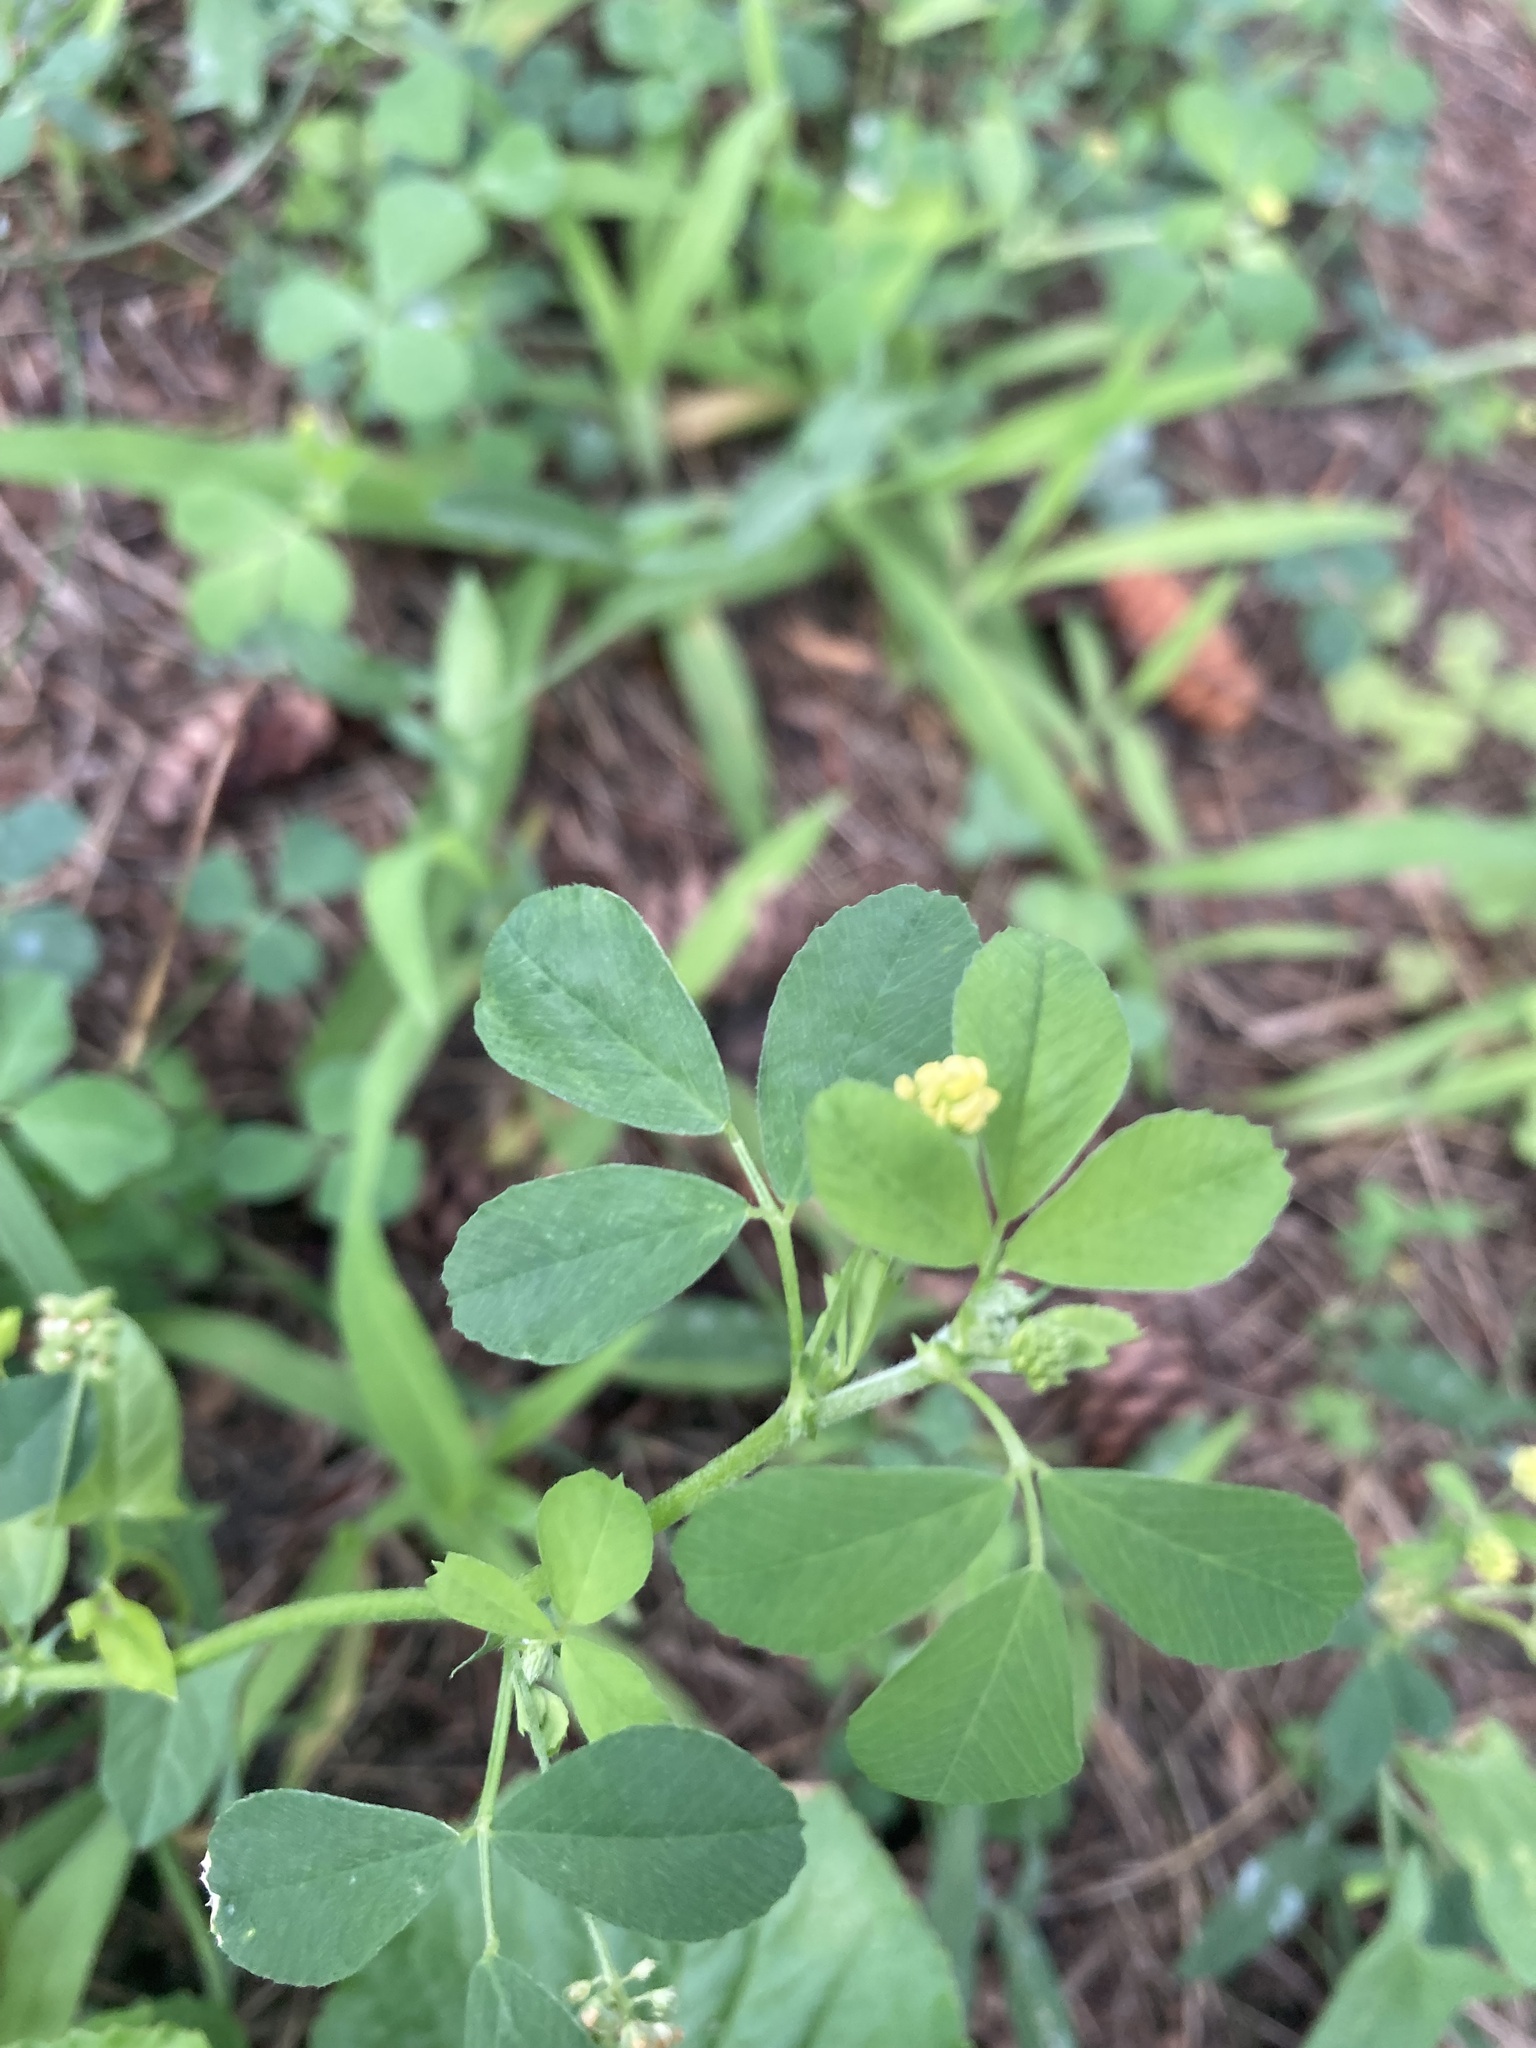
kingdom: Plantae
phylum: Tracheophyta
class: Magnoliopsida
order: Fabales
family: Fabaceae
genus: Medicago
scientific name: Medicago lupulina
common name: Black medick
